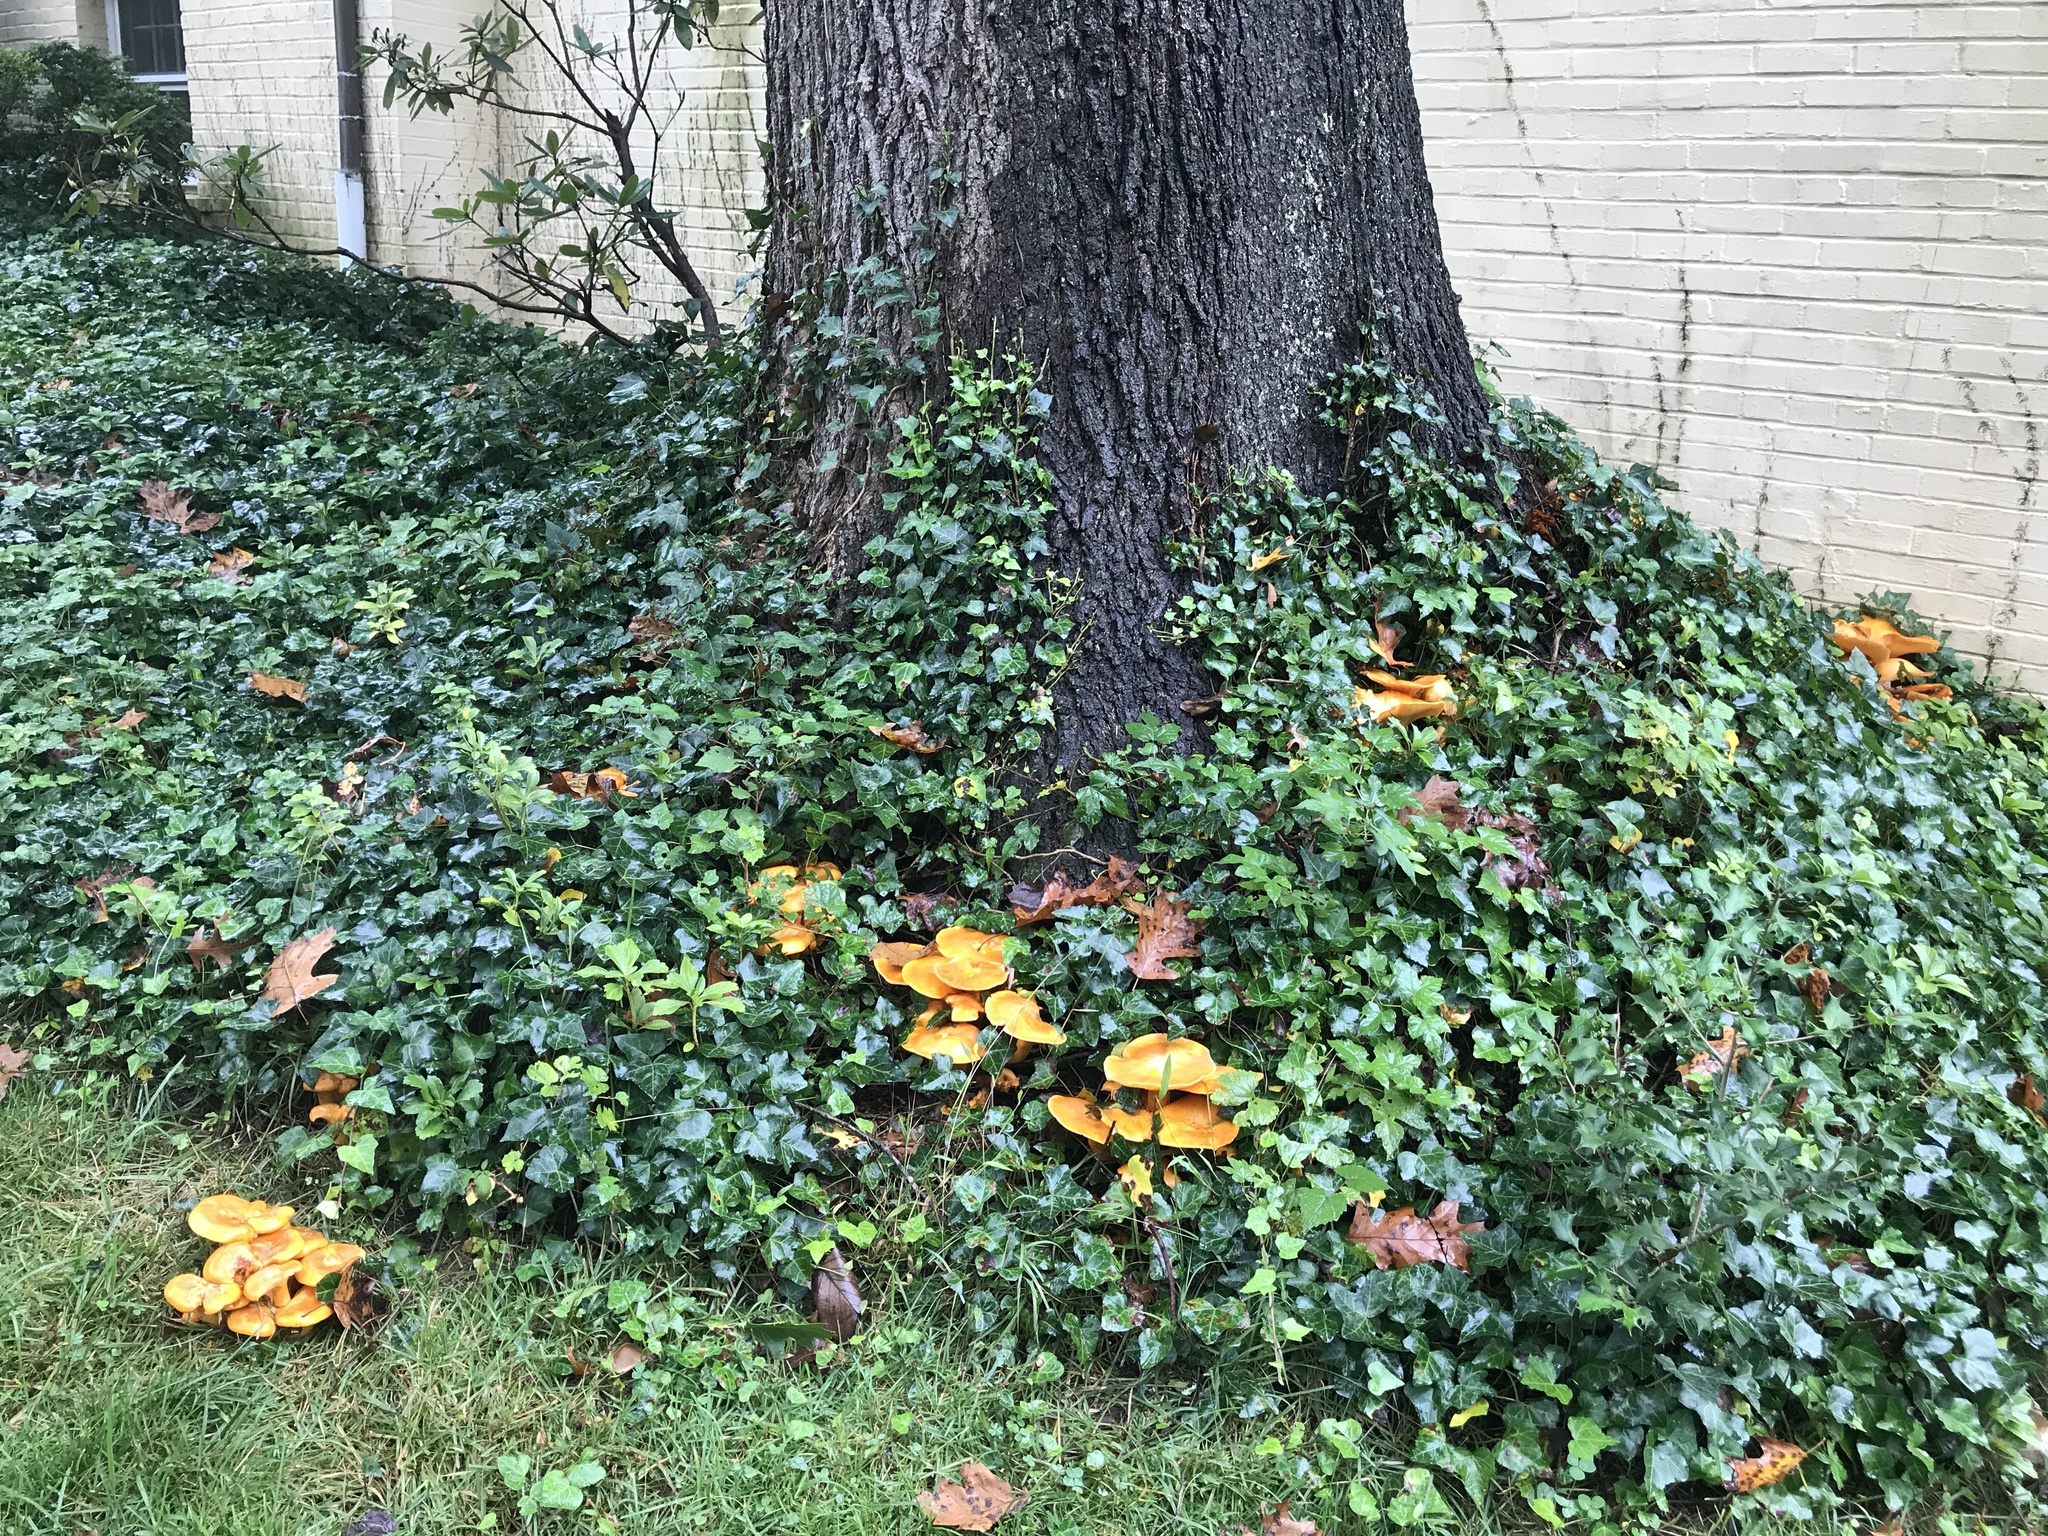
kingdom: Fungi
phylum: Basidiomycota
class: Agaricomycetes
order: Agaricales
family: Omphalotaceae
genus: Omphalotus
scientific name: Omphalotus illudens
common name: Jack o lantern
